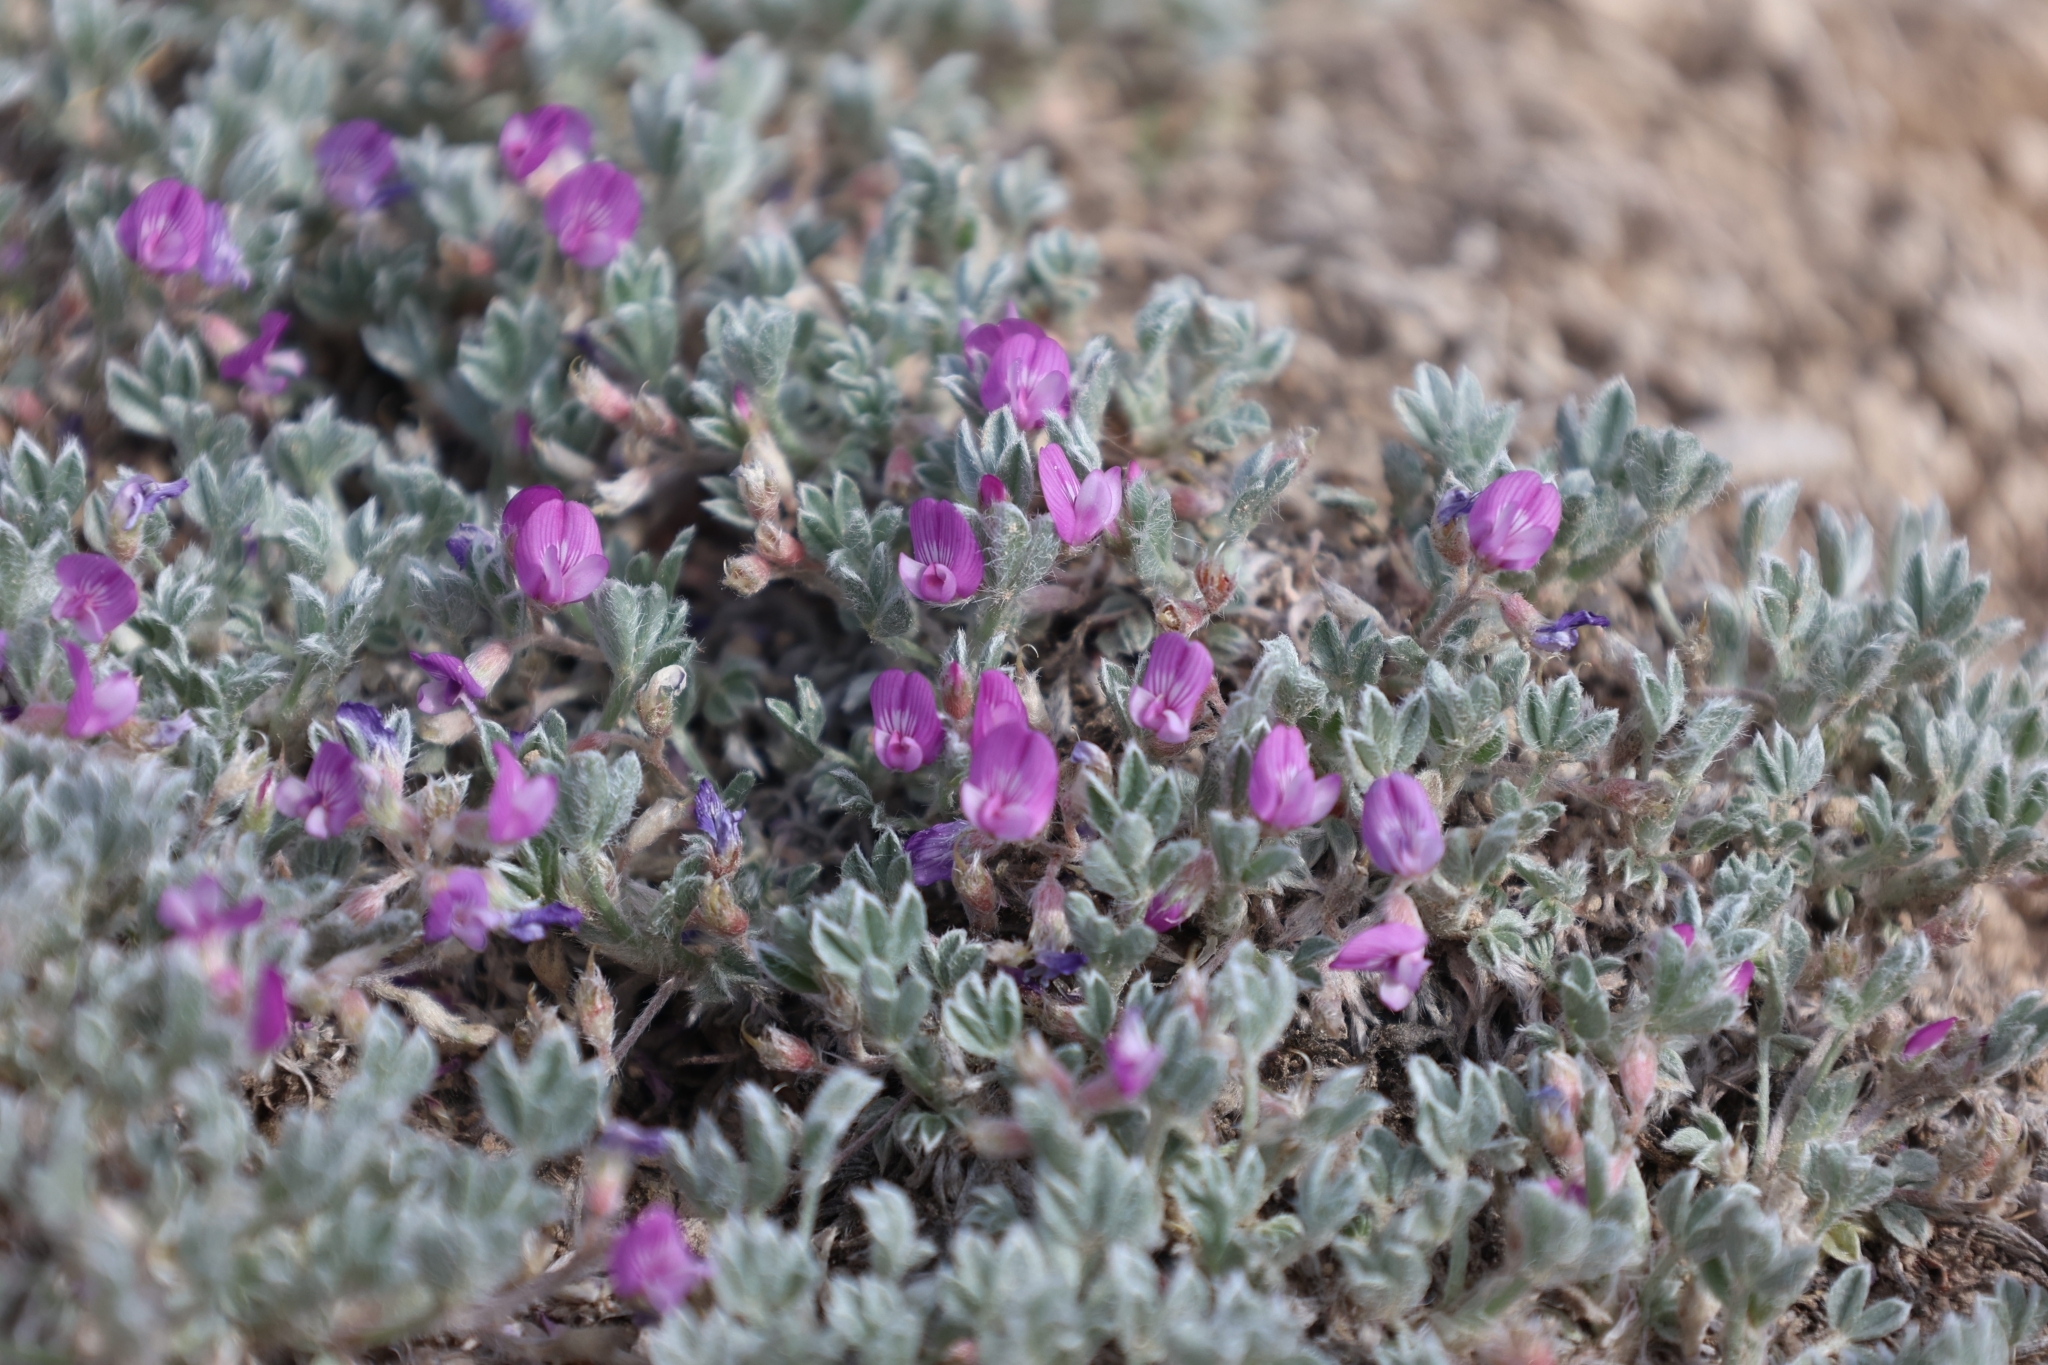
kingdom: Plantae
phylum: Tracheophyta
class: Magnoliopsida
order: Fabales
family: Fabaceae
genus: Astragalus
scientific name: Astragalus sericoleucus
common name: Silky orophaca
